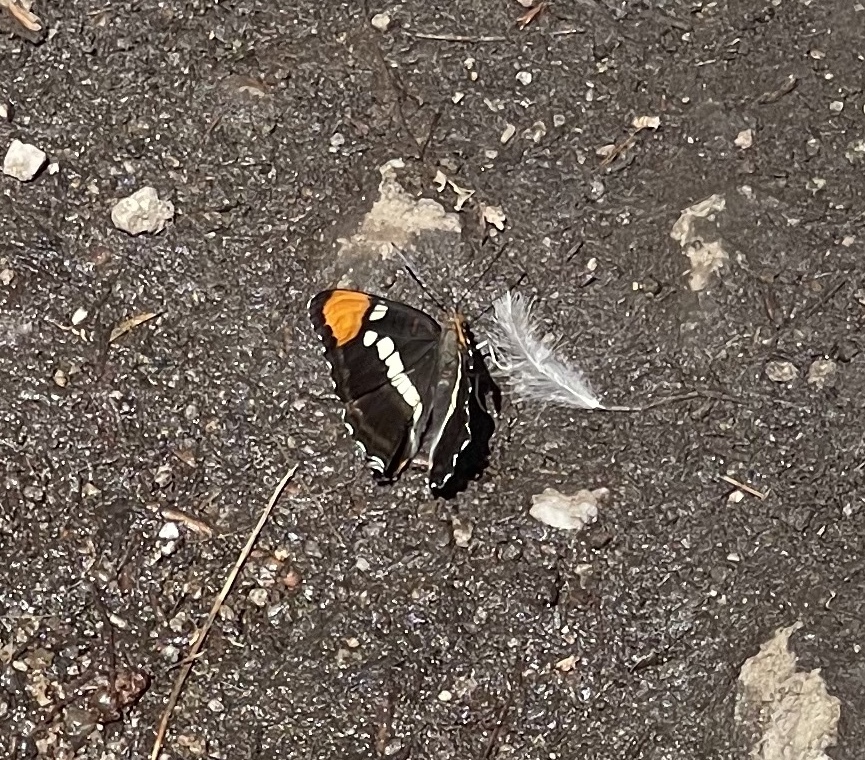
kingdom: Animalia
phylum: Arthropoda
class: Insecta
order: Lepidoptera
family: Nymphalidae
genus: Limenitis
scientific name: Limenitis bredowii
